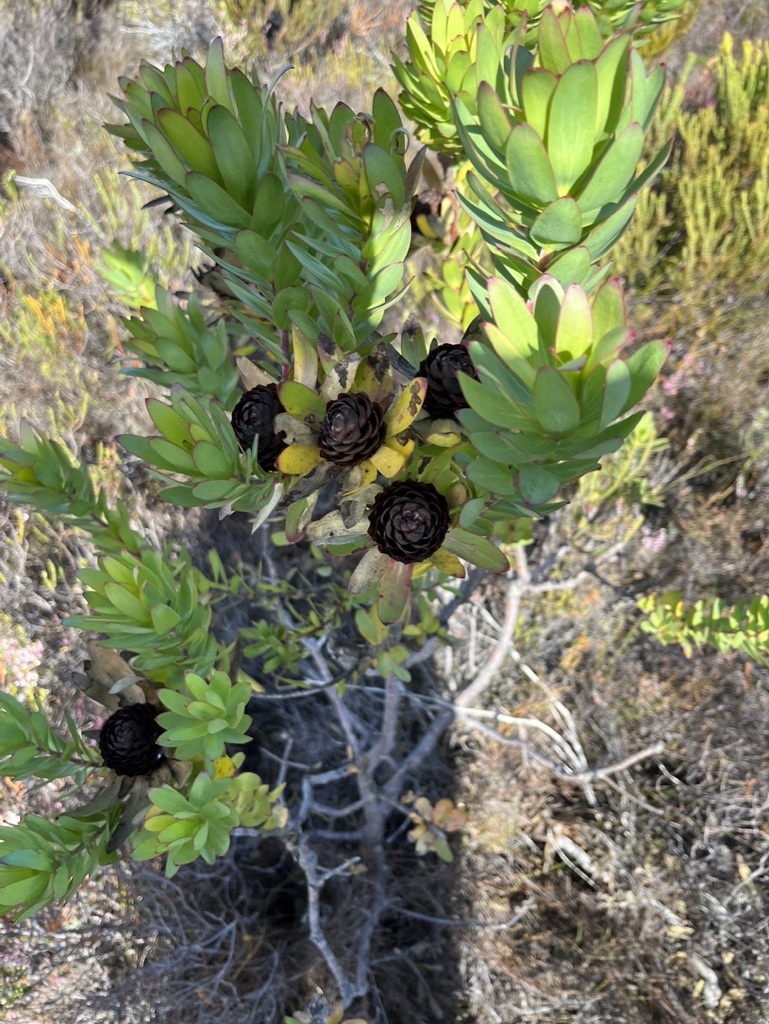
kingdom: Plantae
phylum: Tracheophyta
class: Magnoliopsida
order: Proteales
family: Proteaceae
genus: Leucadendron
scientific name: Leucadendron elimense
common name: Elim conebush
